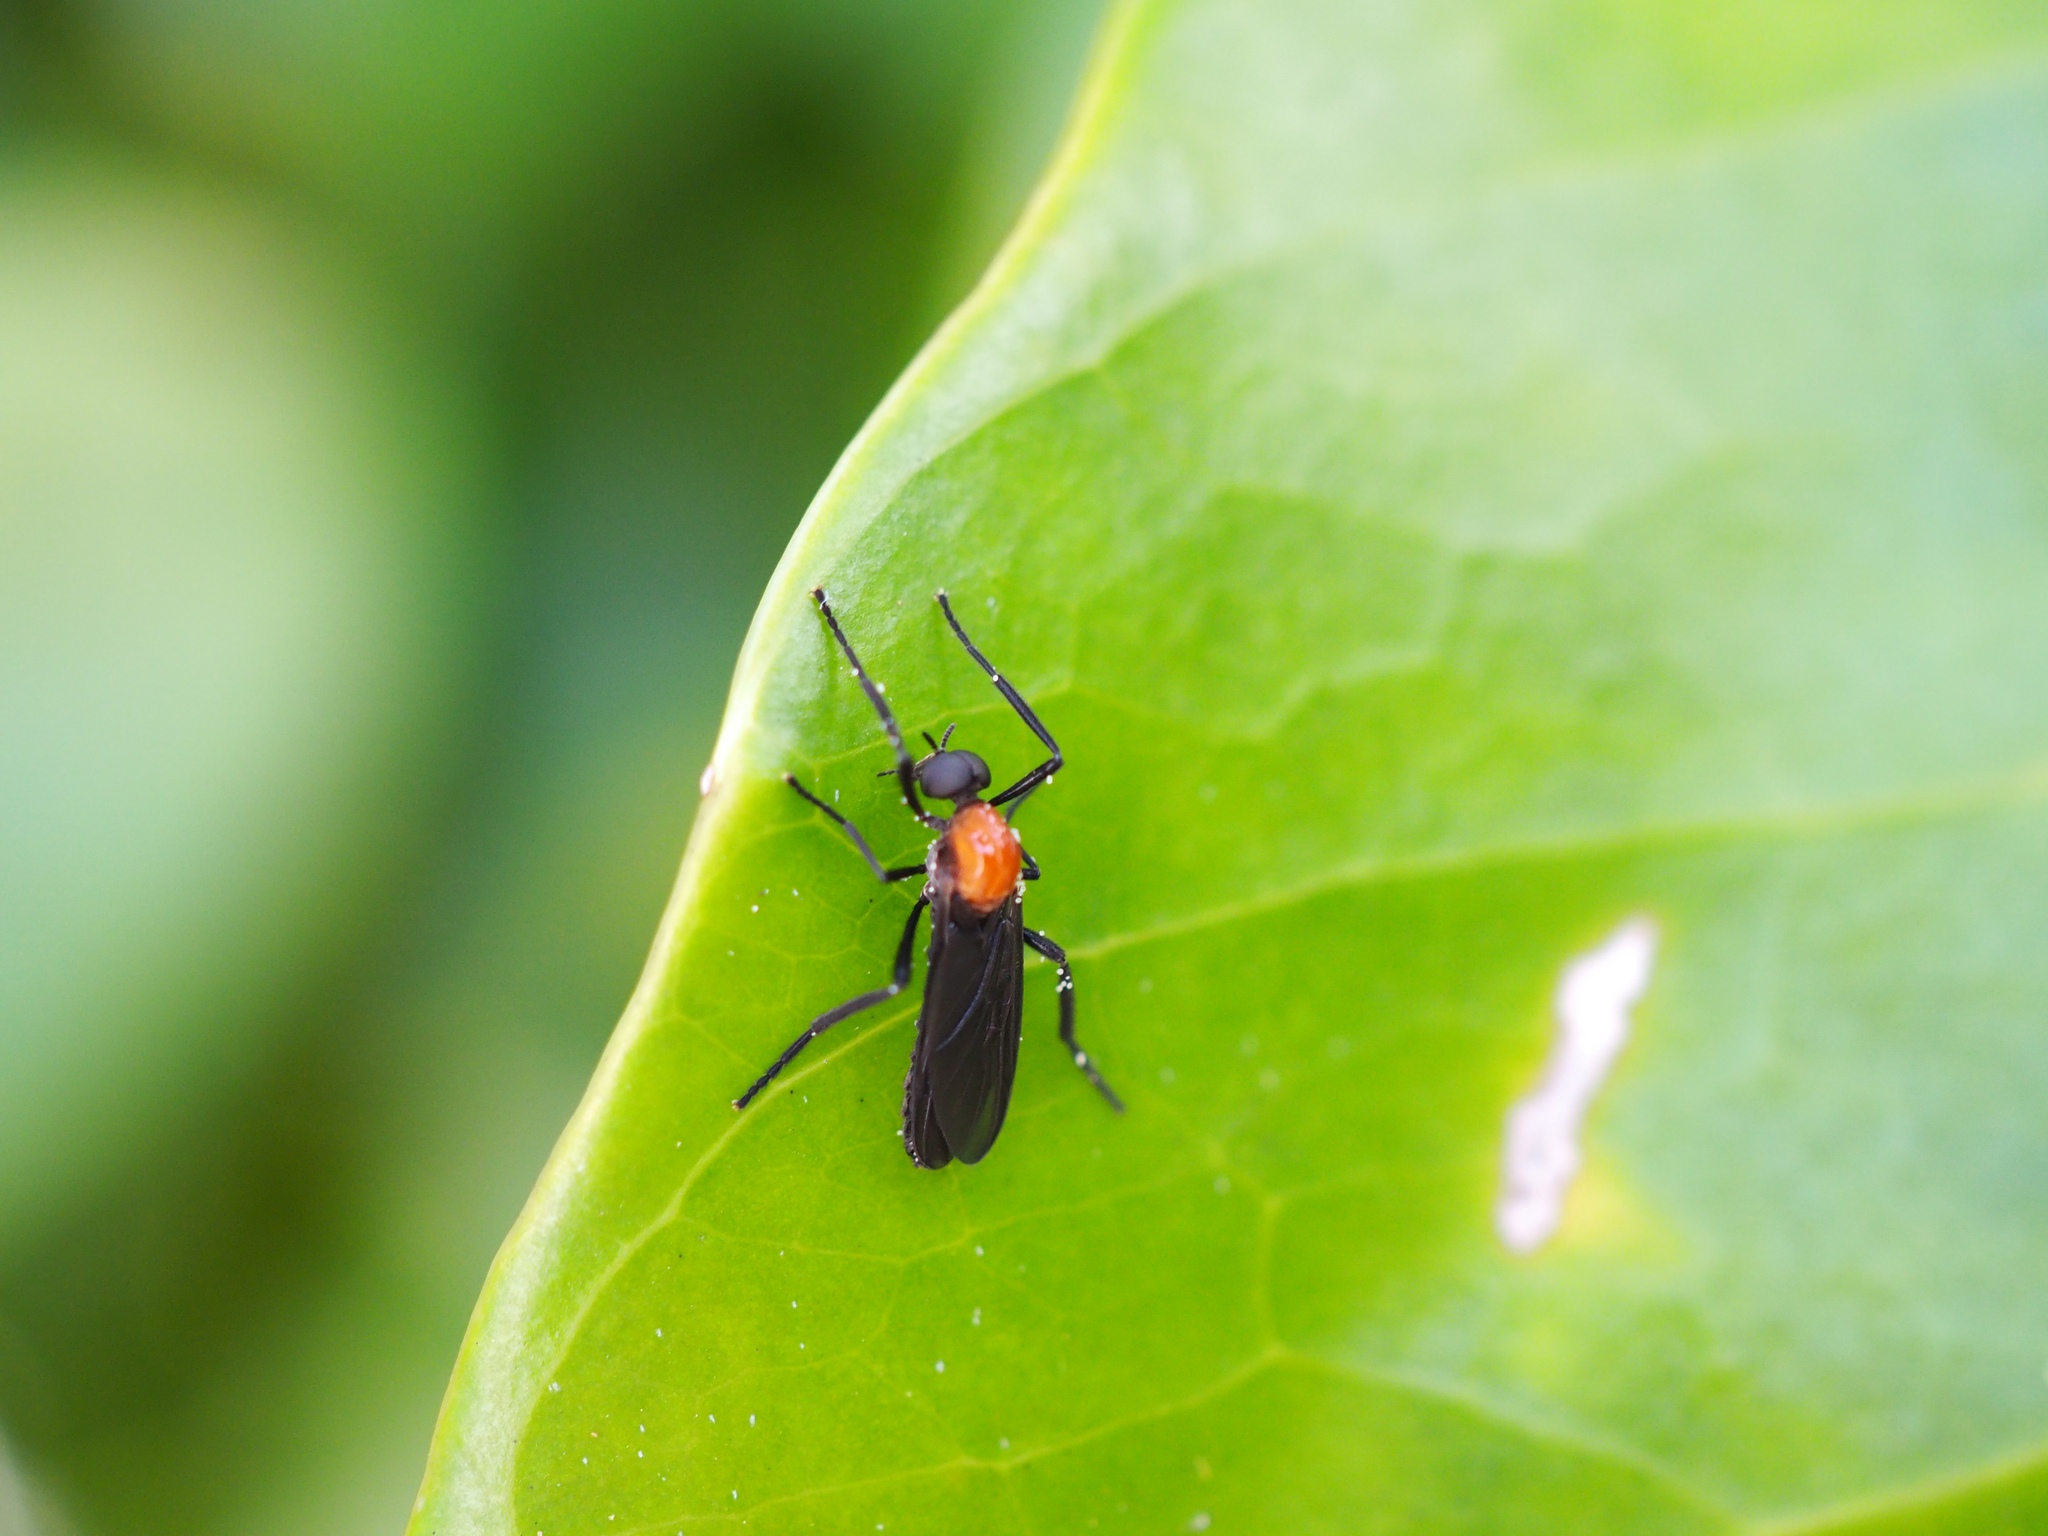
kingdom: Animalia
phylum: Arthropoda
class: Insecta
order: Diptera
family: Bibionidae
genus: Plecia
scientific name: Plecia nearctica
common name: March fly
